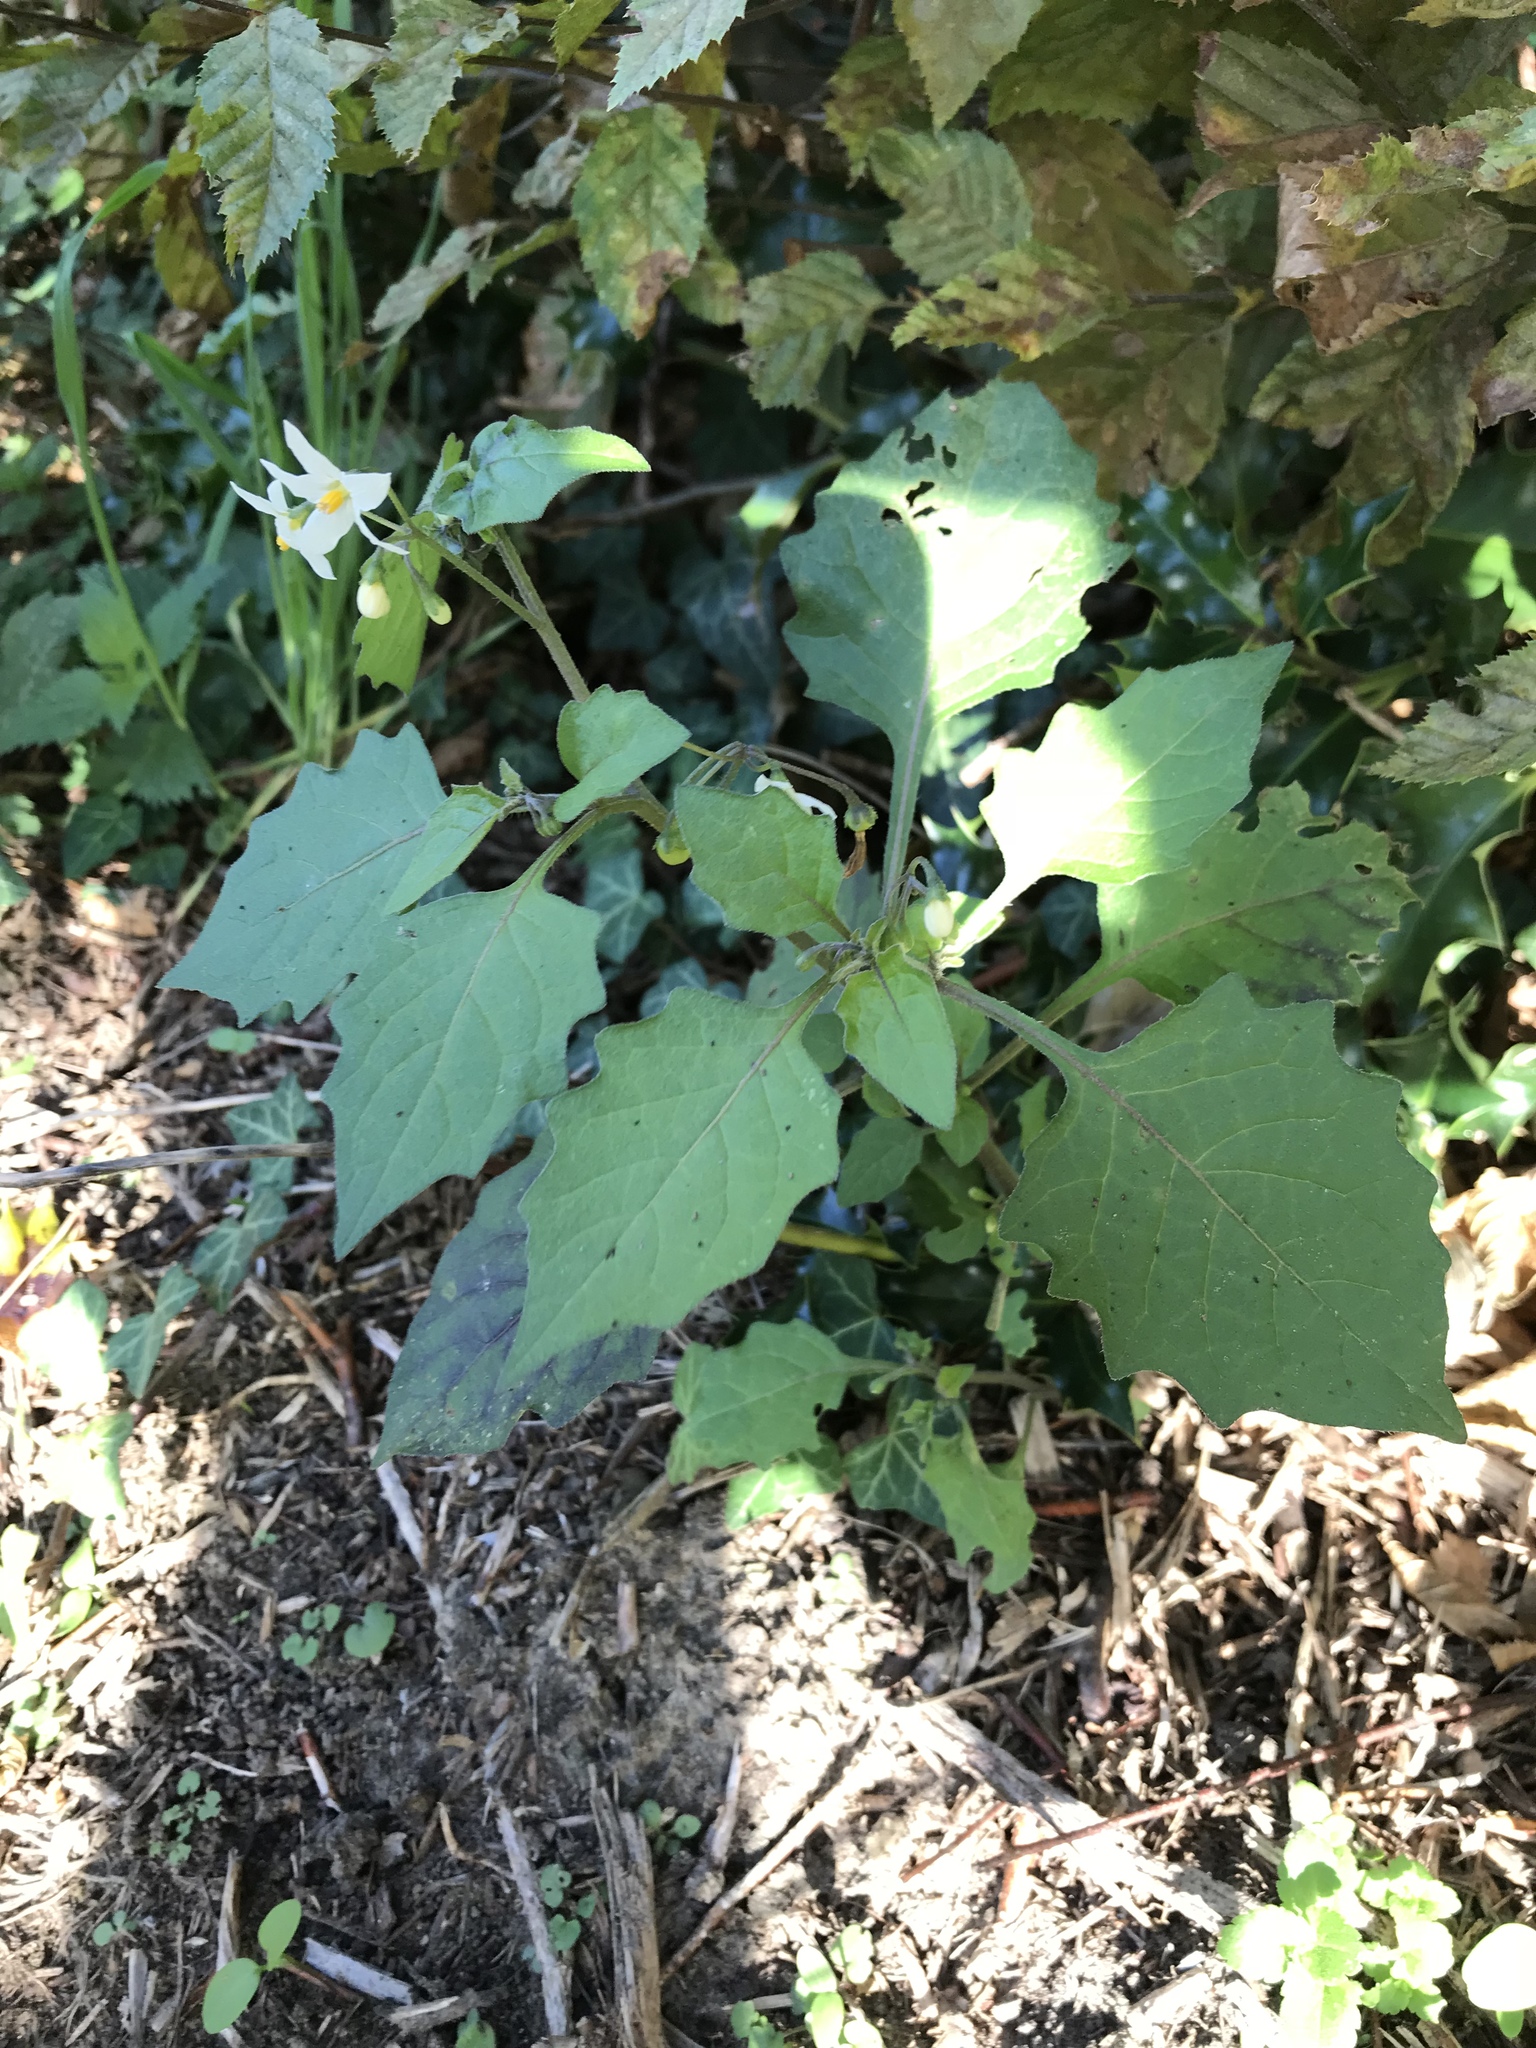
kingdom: Plantae
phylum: Tracheophyta
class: Magnoliopsida
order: Solanales
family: Solanaceae
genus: Solanum
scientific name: Solanum nigrum
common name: Black nightshade
